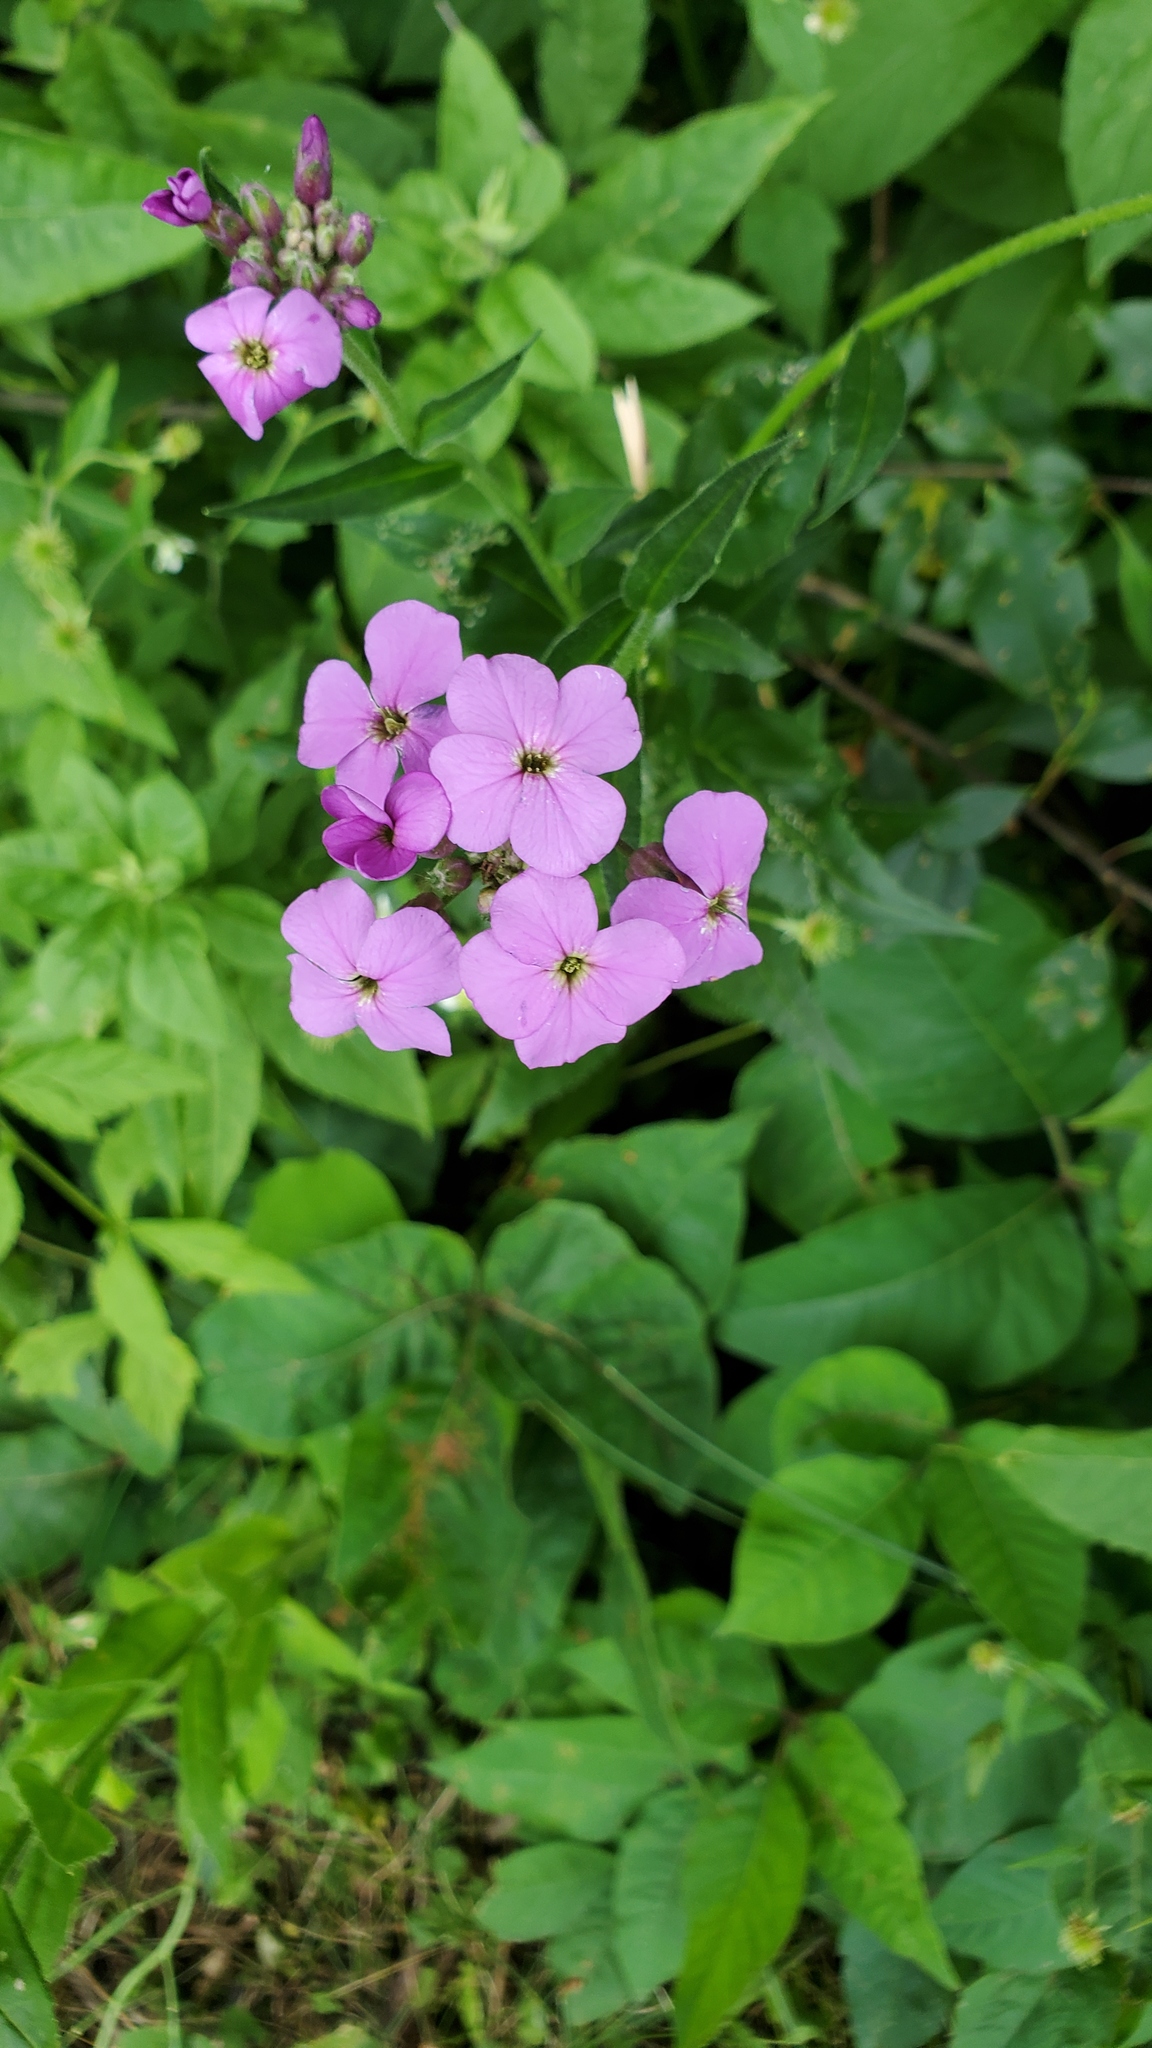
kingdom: Plantae
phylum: Tracheophyta
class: Magnoliopsida
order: Brassicales
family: Brassicaceae
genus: Hesperis
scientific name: Hesperis matronalis
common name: Dame's-violet
